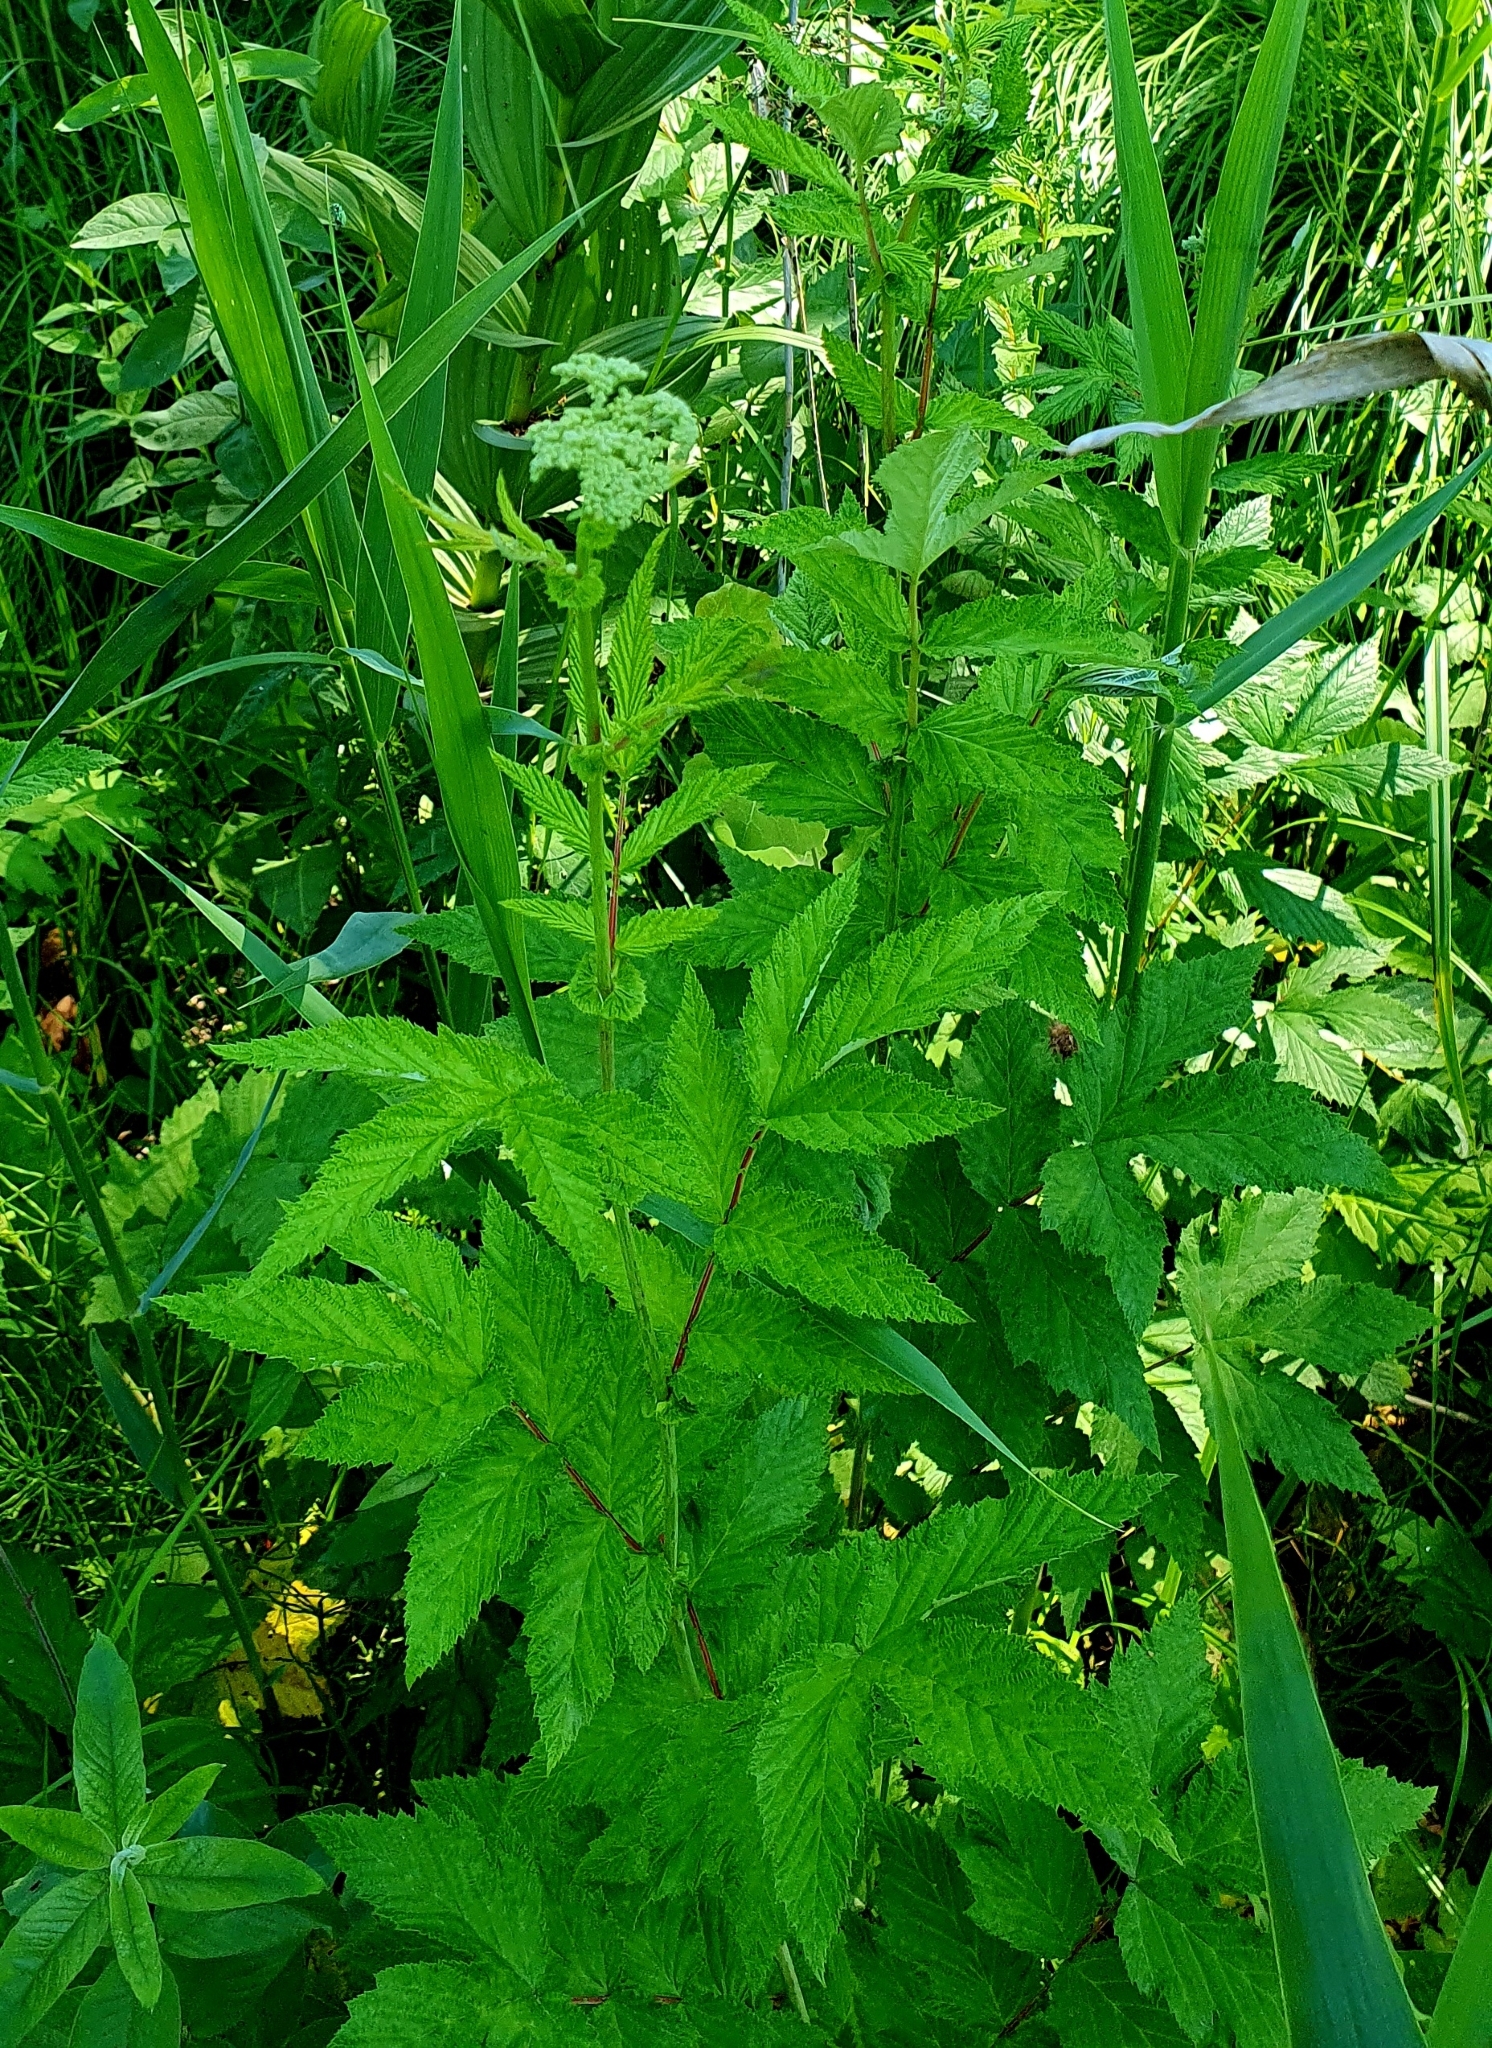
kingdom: Plantae
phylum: Tracheophyta
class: Magnoliopsida
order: Rosales
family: Rosaceae
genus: Filipendula
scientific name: Filipendula ulmaria
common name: Meadowsweet
